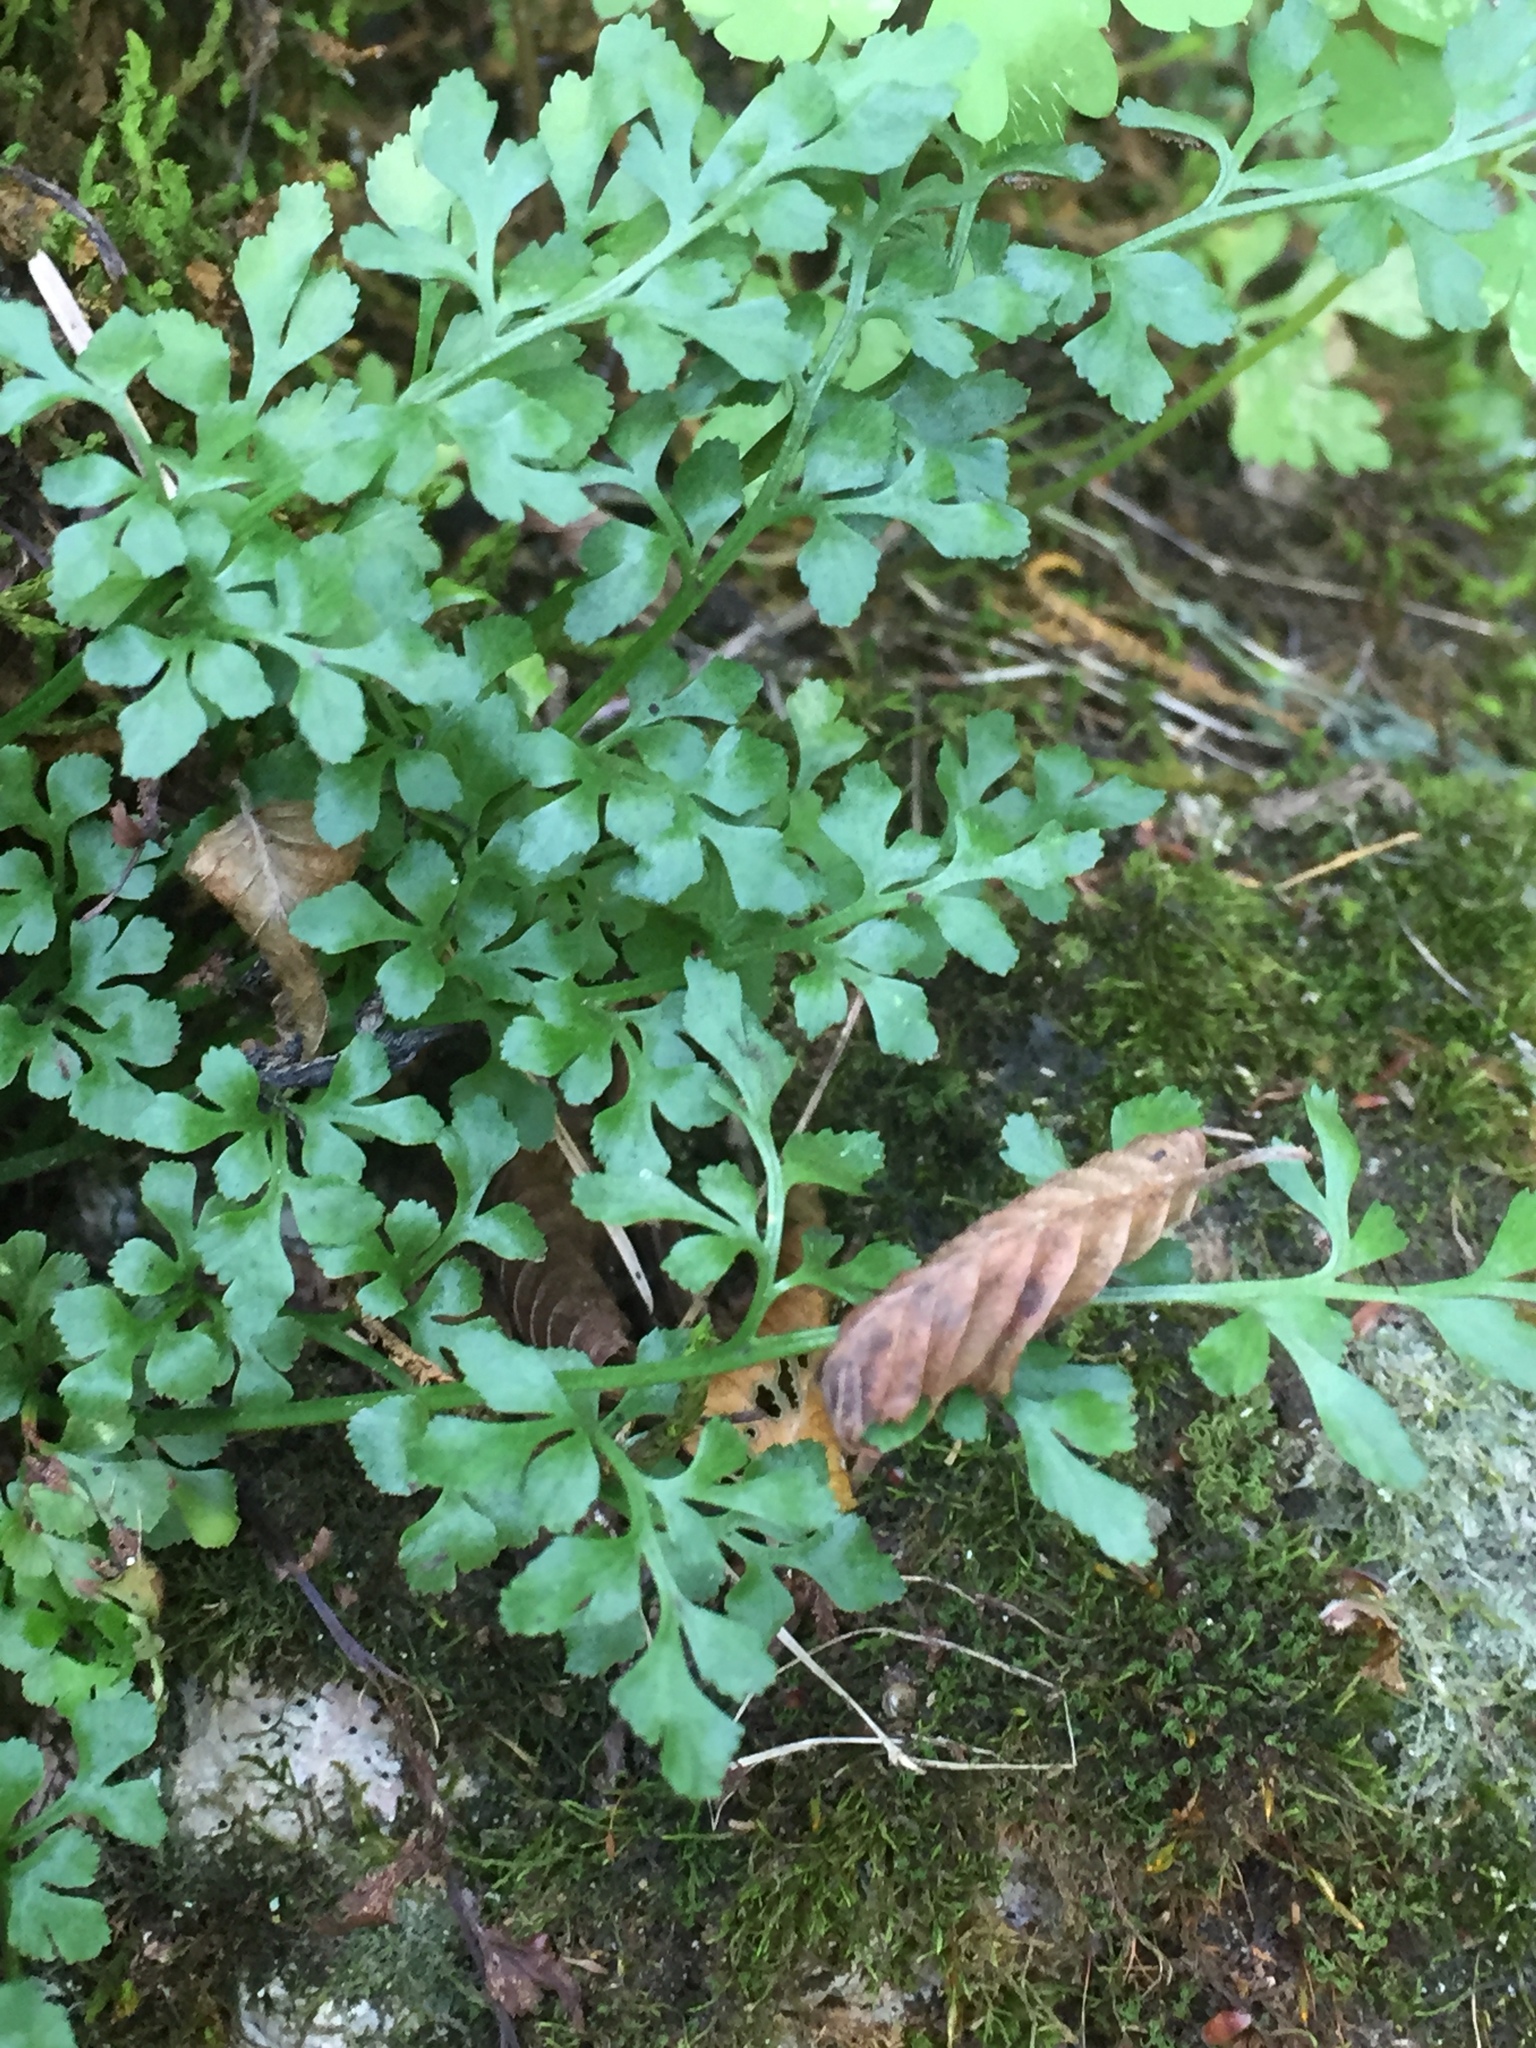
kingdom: Plantae
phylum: Tracheophyta
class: Polypodiopsida
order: Polypodiales
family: Aspleniaceae
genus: Asplenium
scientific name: Asplenium ruta-muraria
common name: Wall-rue
